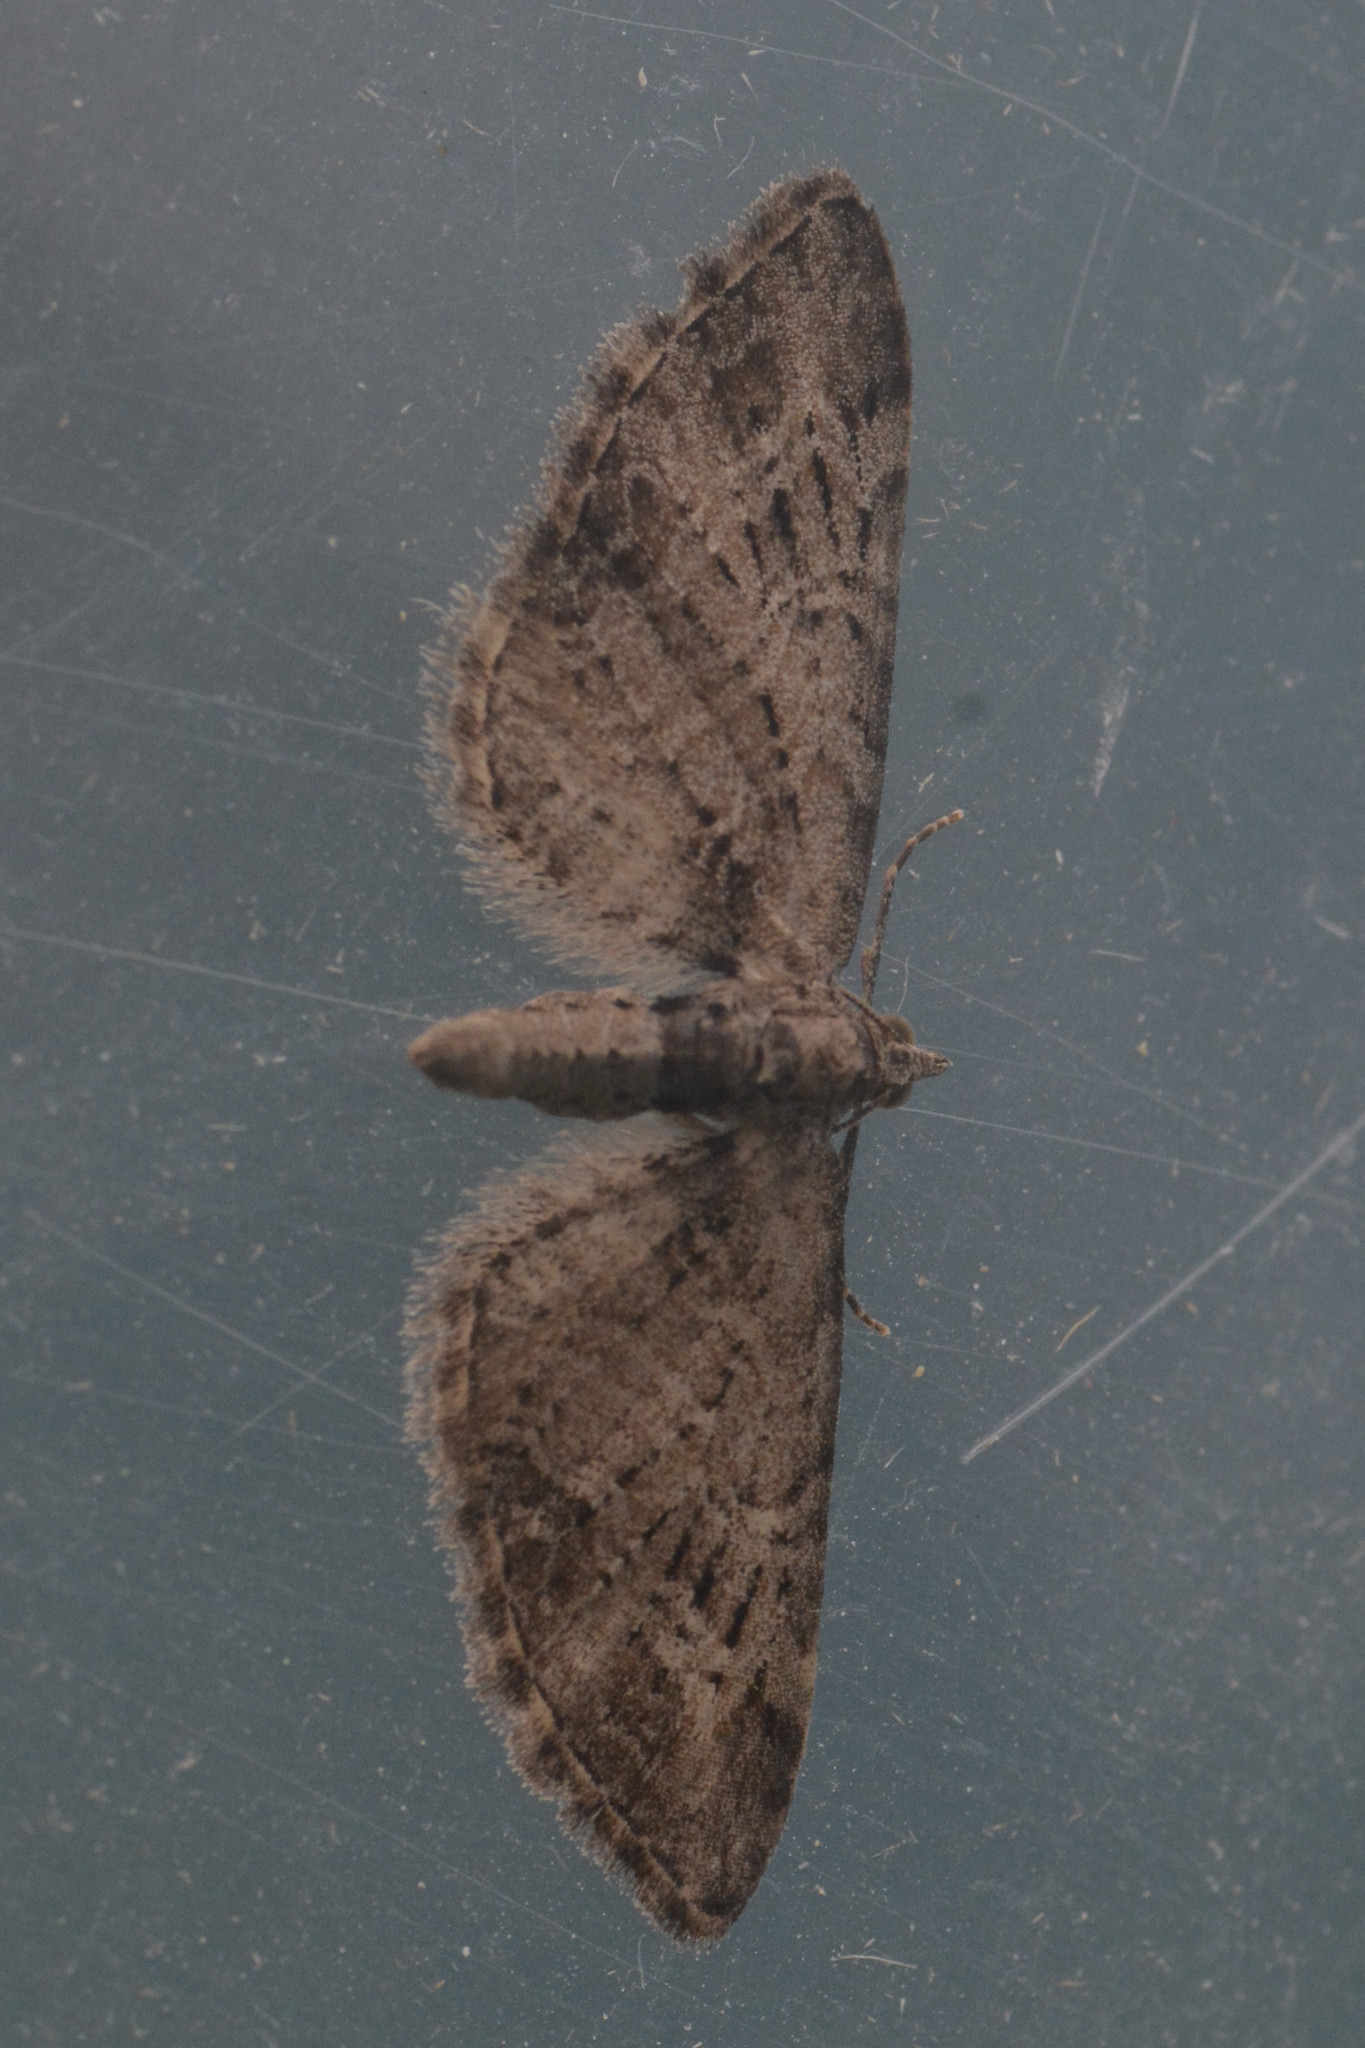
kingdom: Animalia
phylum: Arthropoda
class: Insecta
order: Lepidoptera
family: Geometridae
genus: Eupithecia
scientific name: Eupithecia exiguata
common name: Mottled pug
